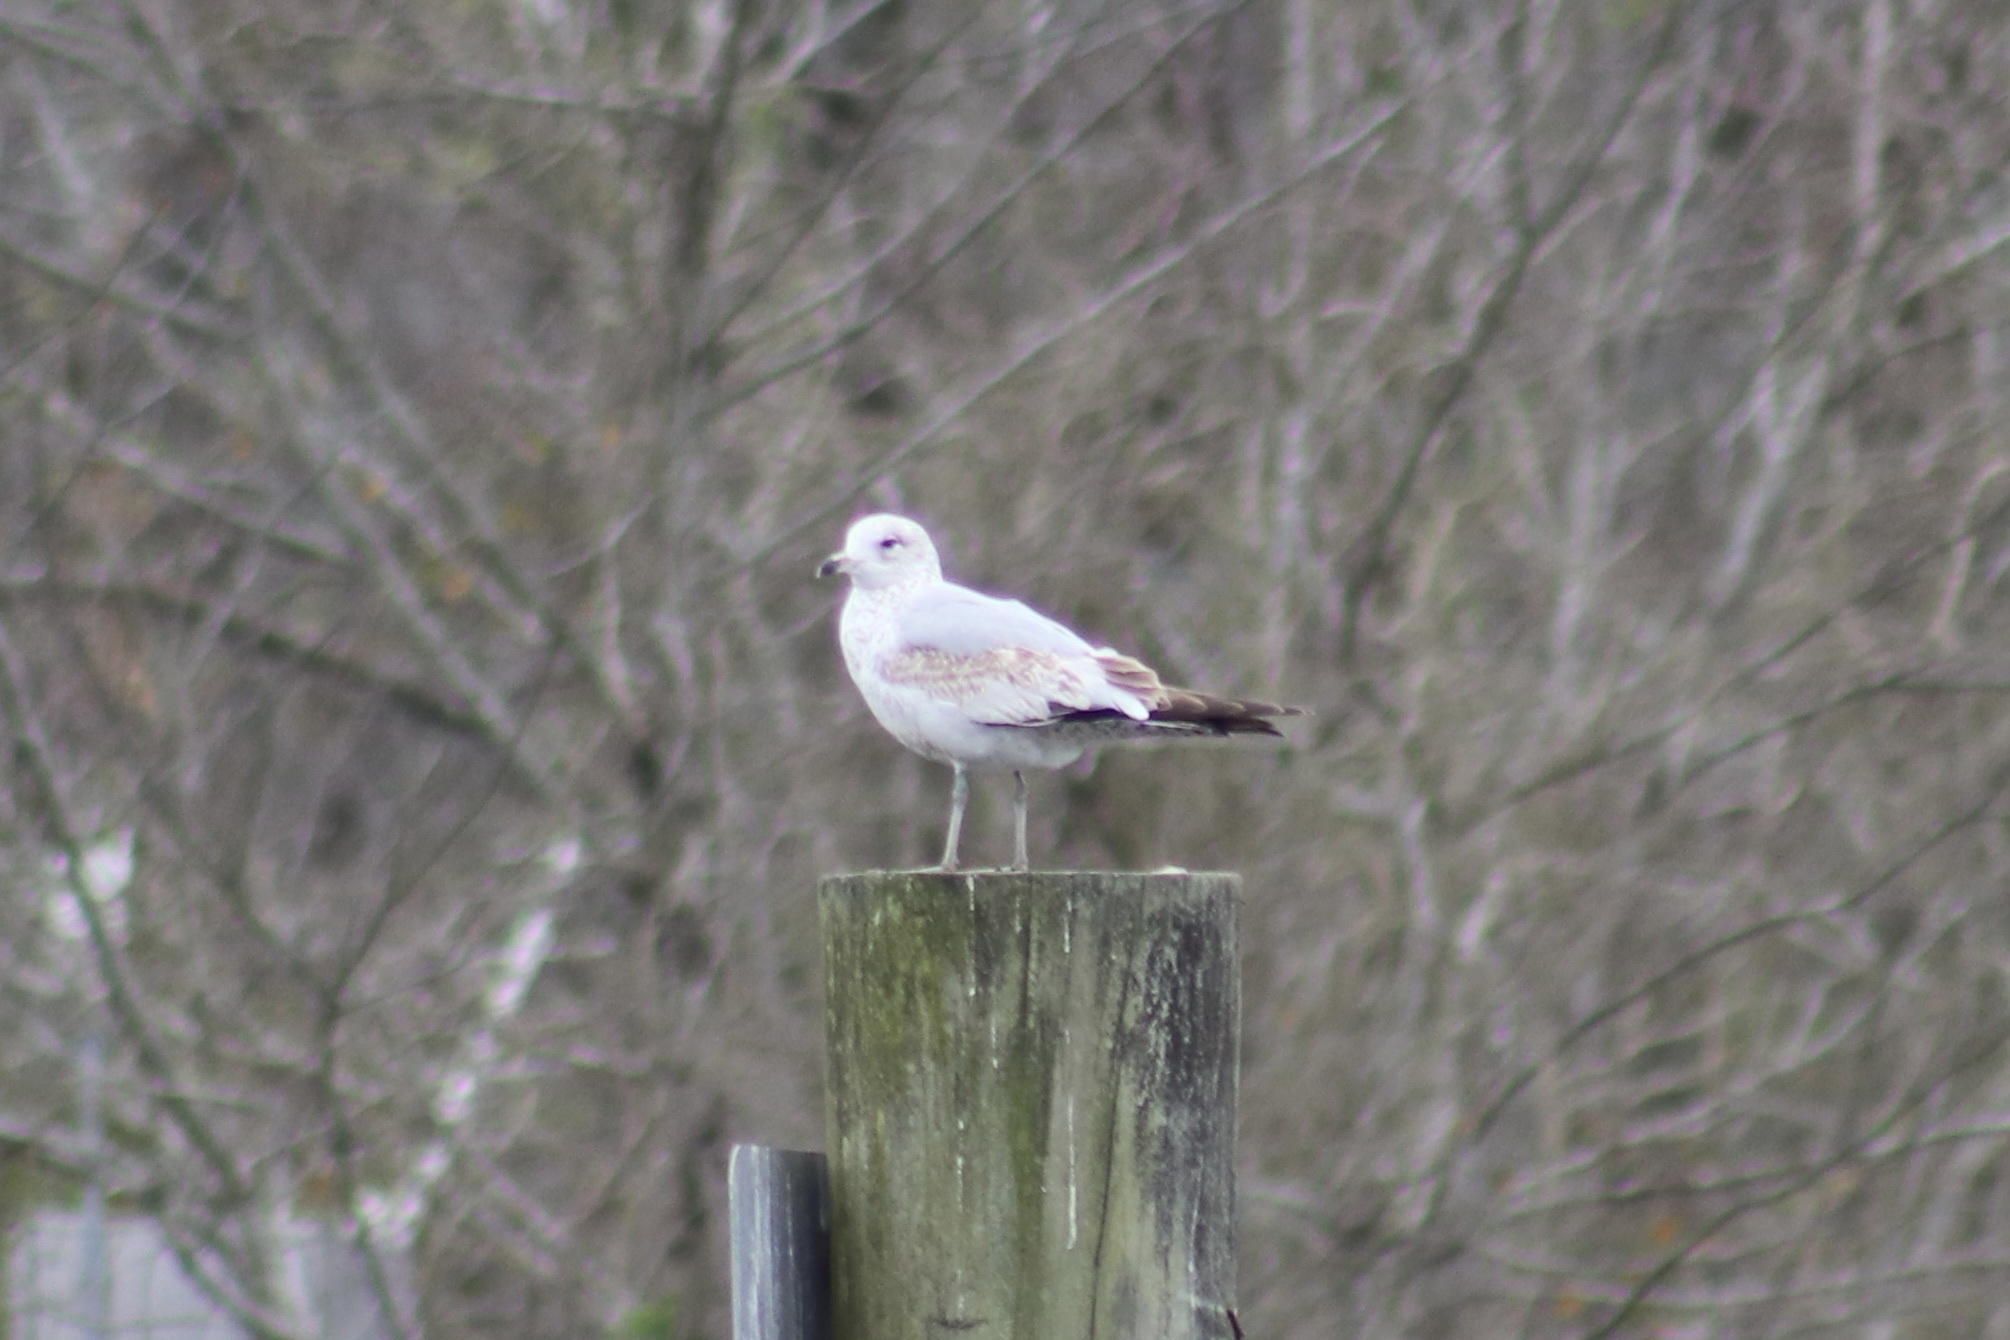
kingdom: Animalia
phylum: Chordata
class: Aves
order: Charadriiformes
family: Laridae
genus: Larus
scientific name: Larus delawarensis
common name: Ring-billed gull
